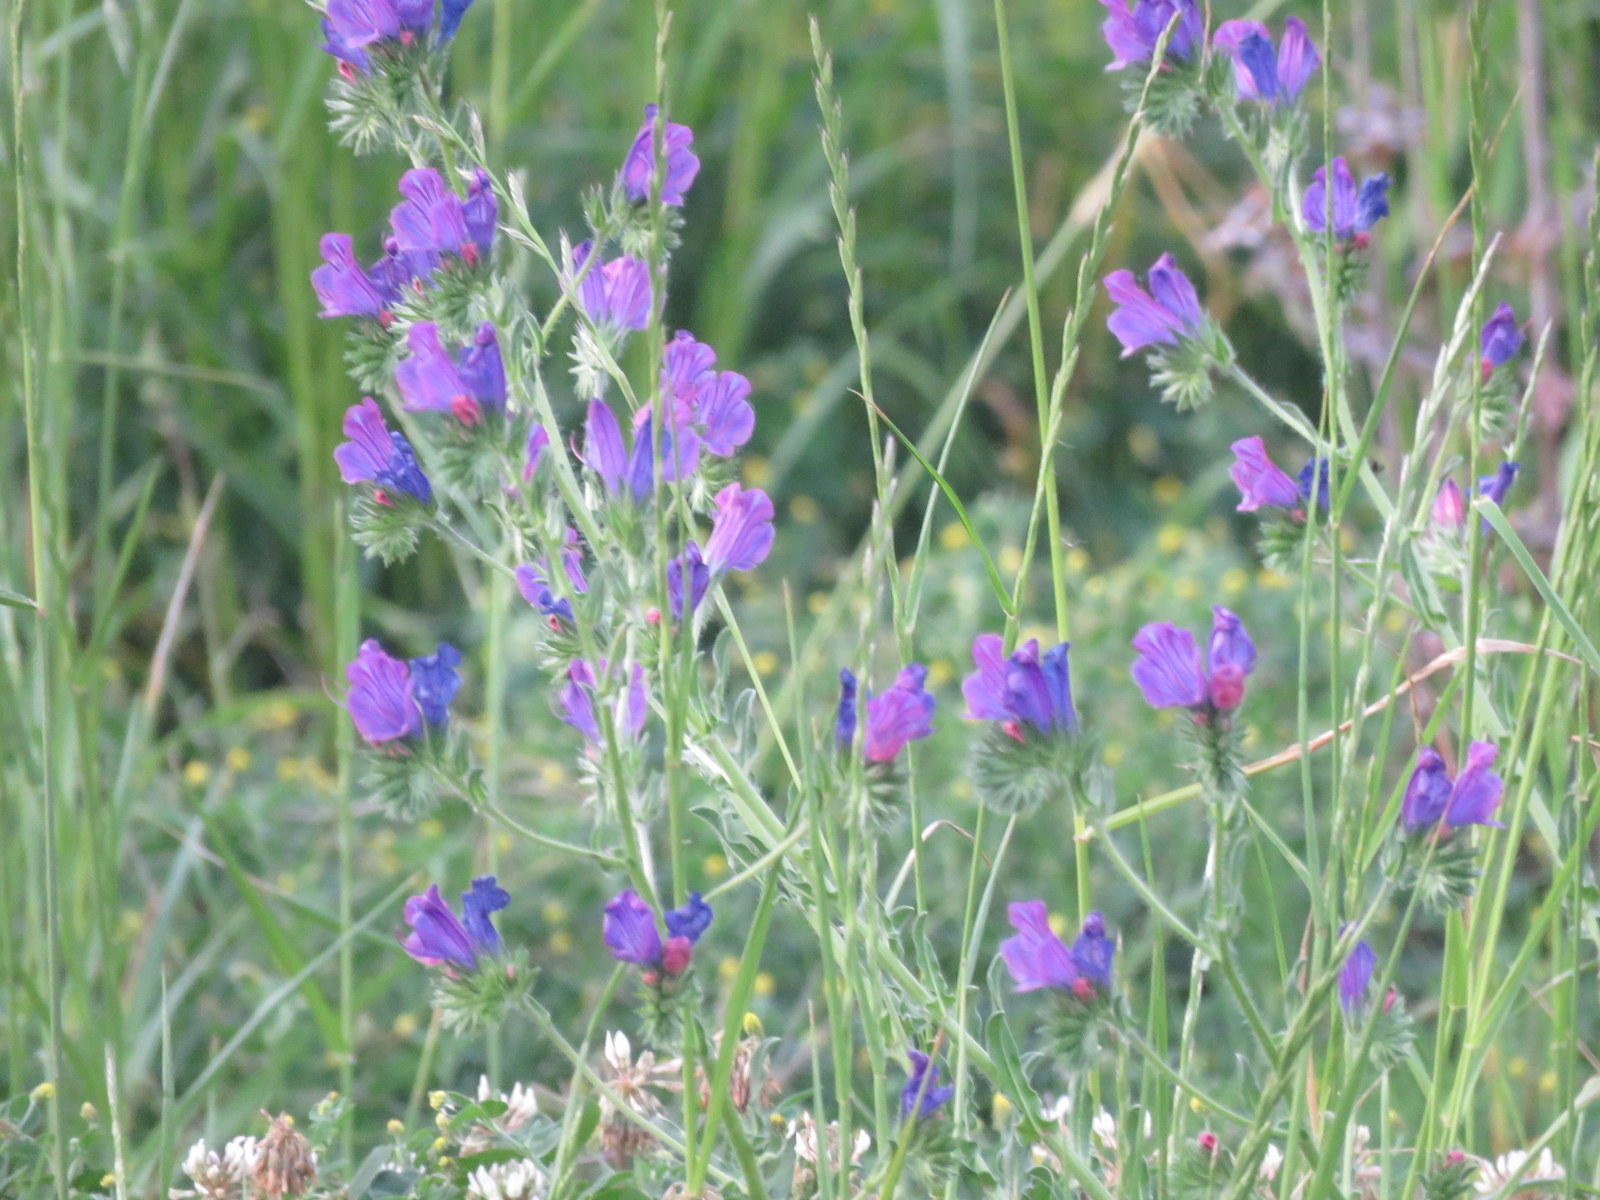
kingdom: Plantae
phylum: Tracheophyta
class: Magnoliopsida
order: Boraginales
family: Boraginaceae
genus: Echium
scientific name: Echium plantagineum
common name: Purple viper's-bugloss
